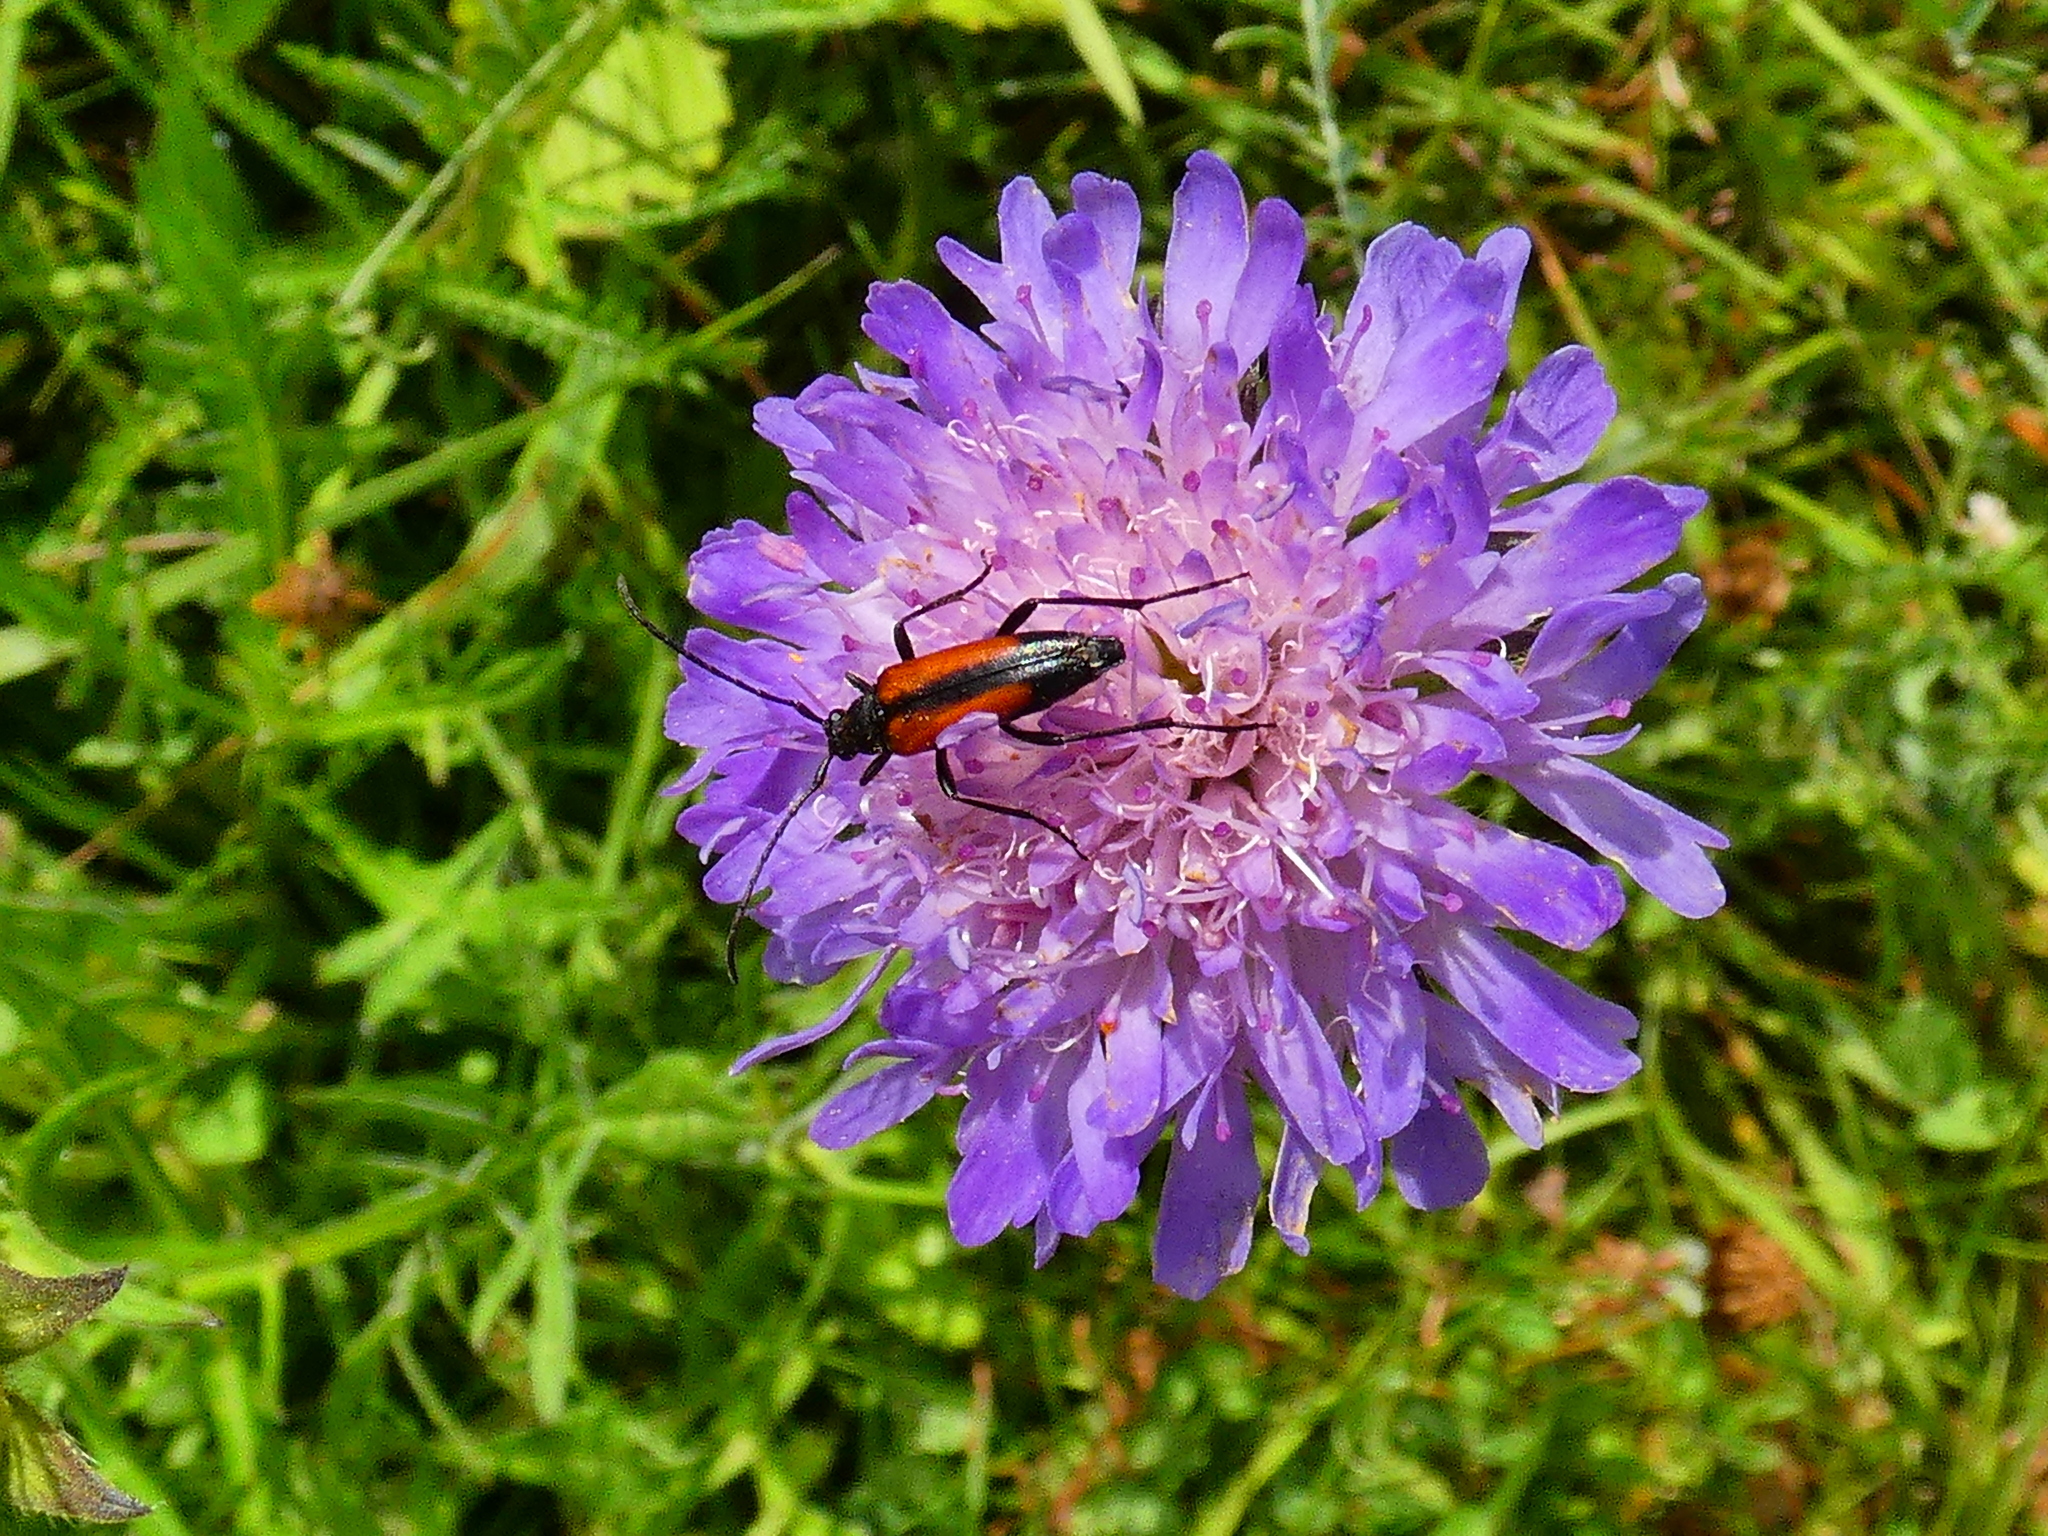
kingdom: Animalia
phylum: Arthropoda
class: Insecta
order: Coleoptera
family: Cerambycidae
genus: Stenurella
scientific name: Stenurella melanura
